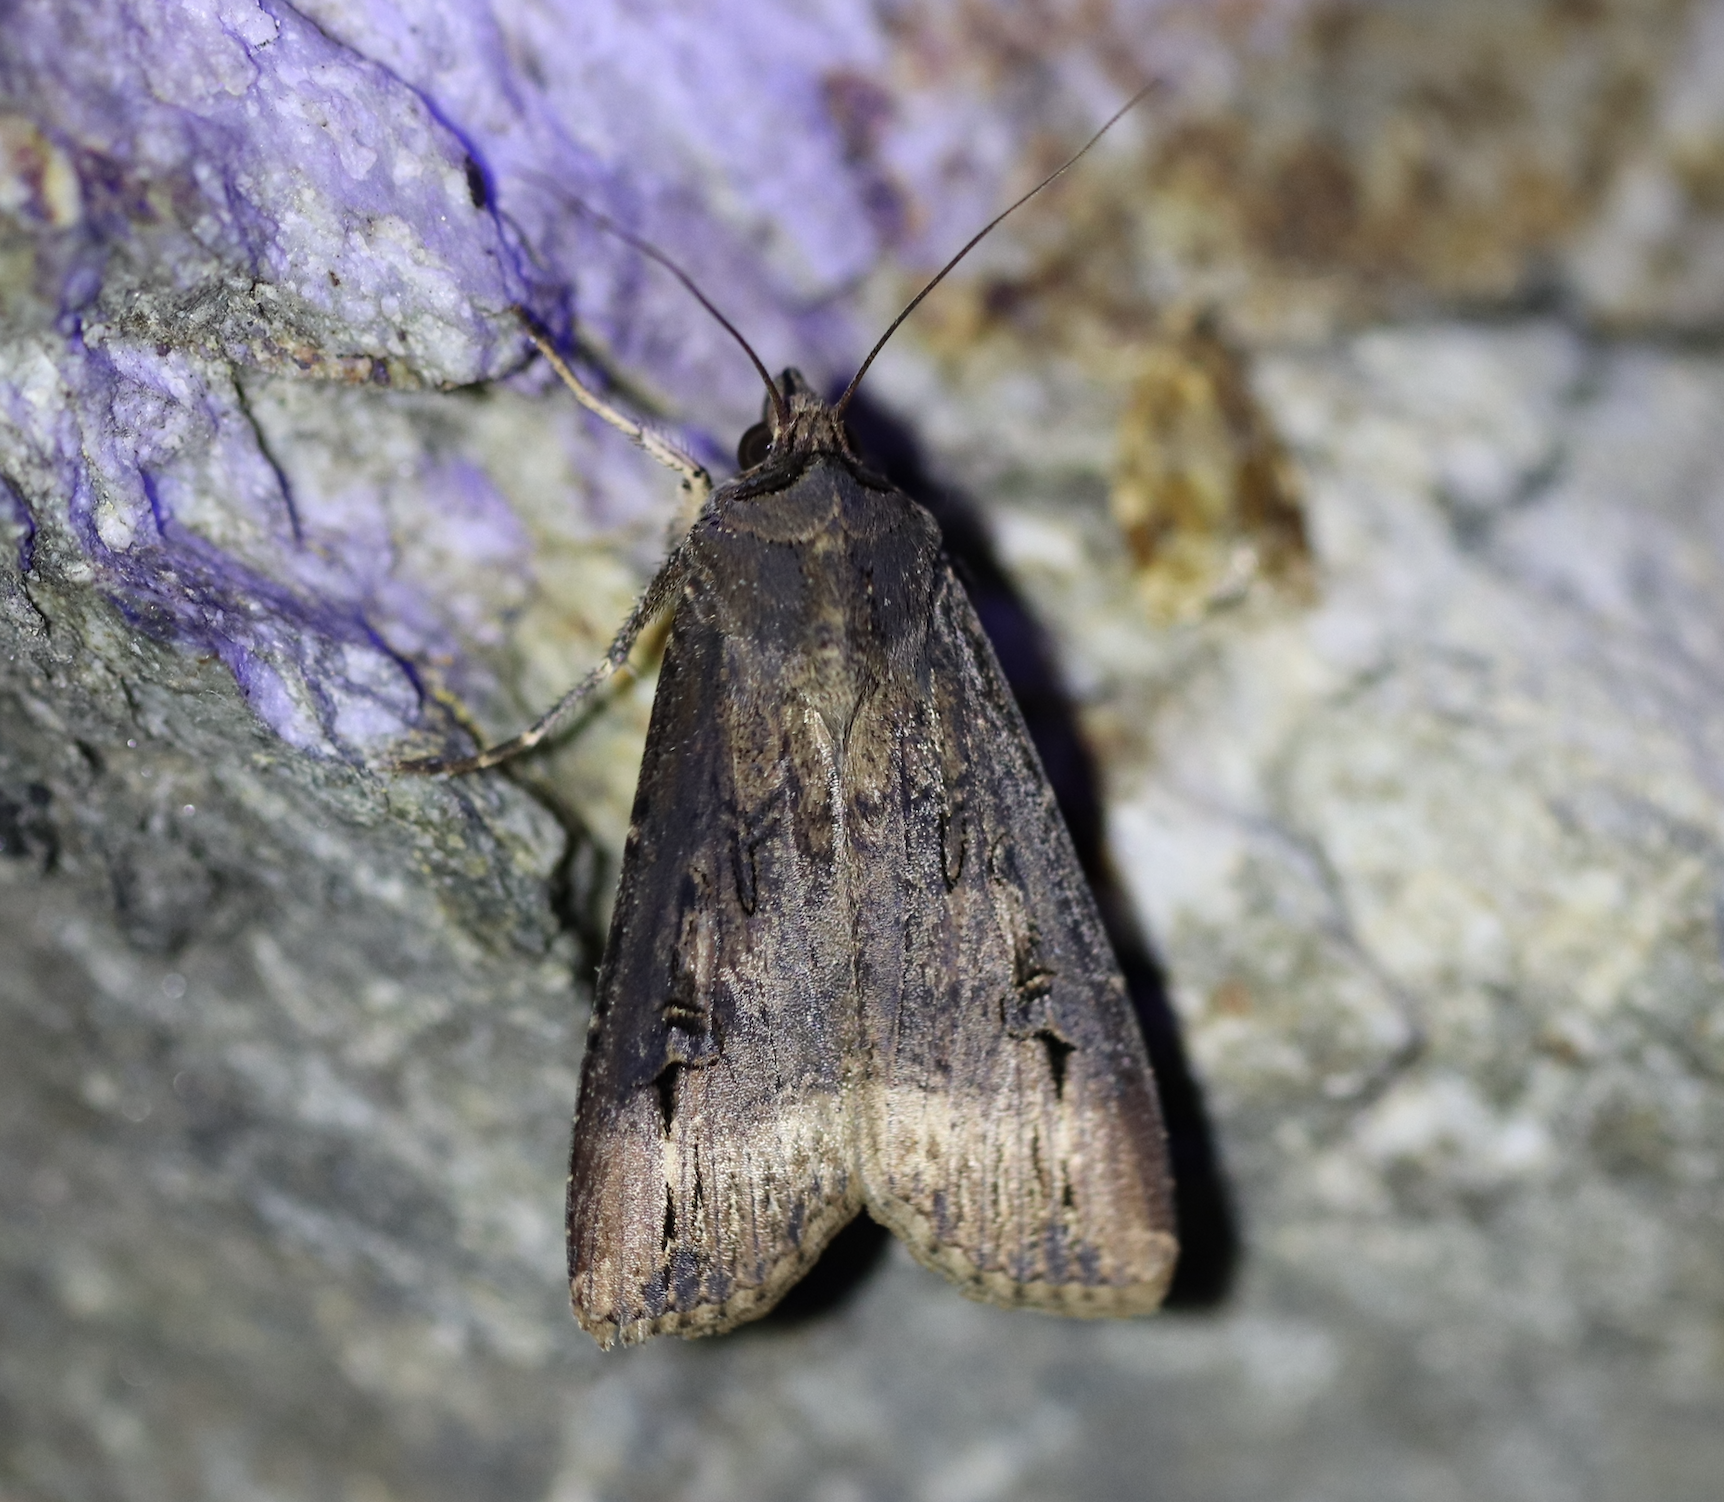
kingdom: Animalia
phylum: Arthropoda
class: Insecta
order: Lepidoptera
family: Noctuidae
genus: Agrotis
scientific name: Agrotis ipsilon
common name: Dark sword-grass
